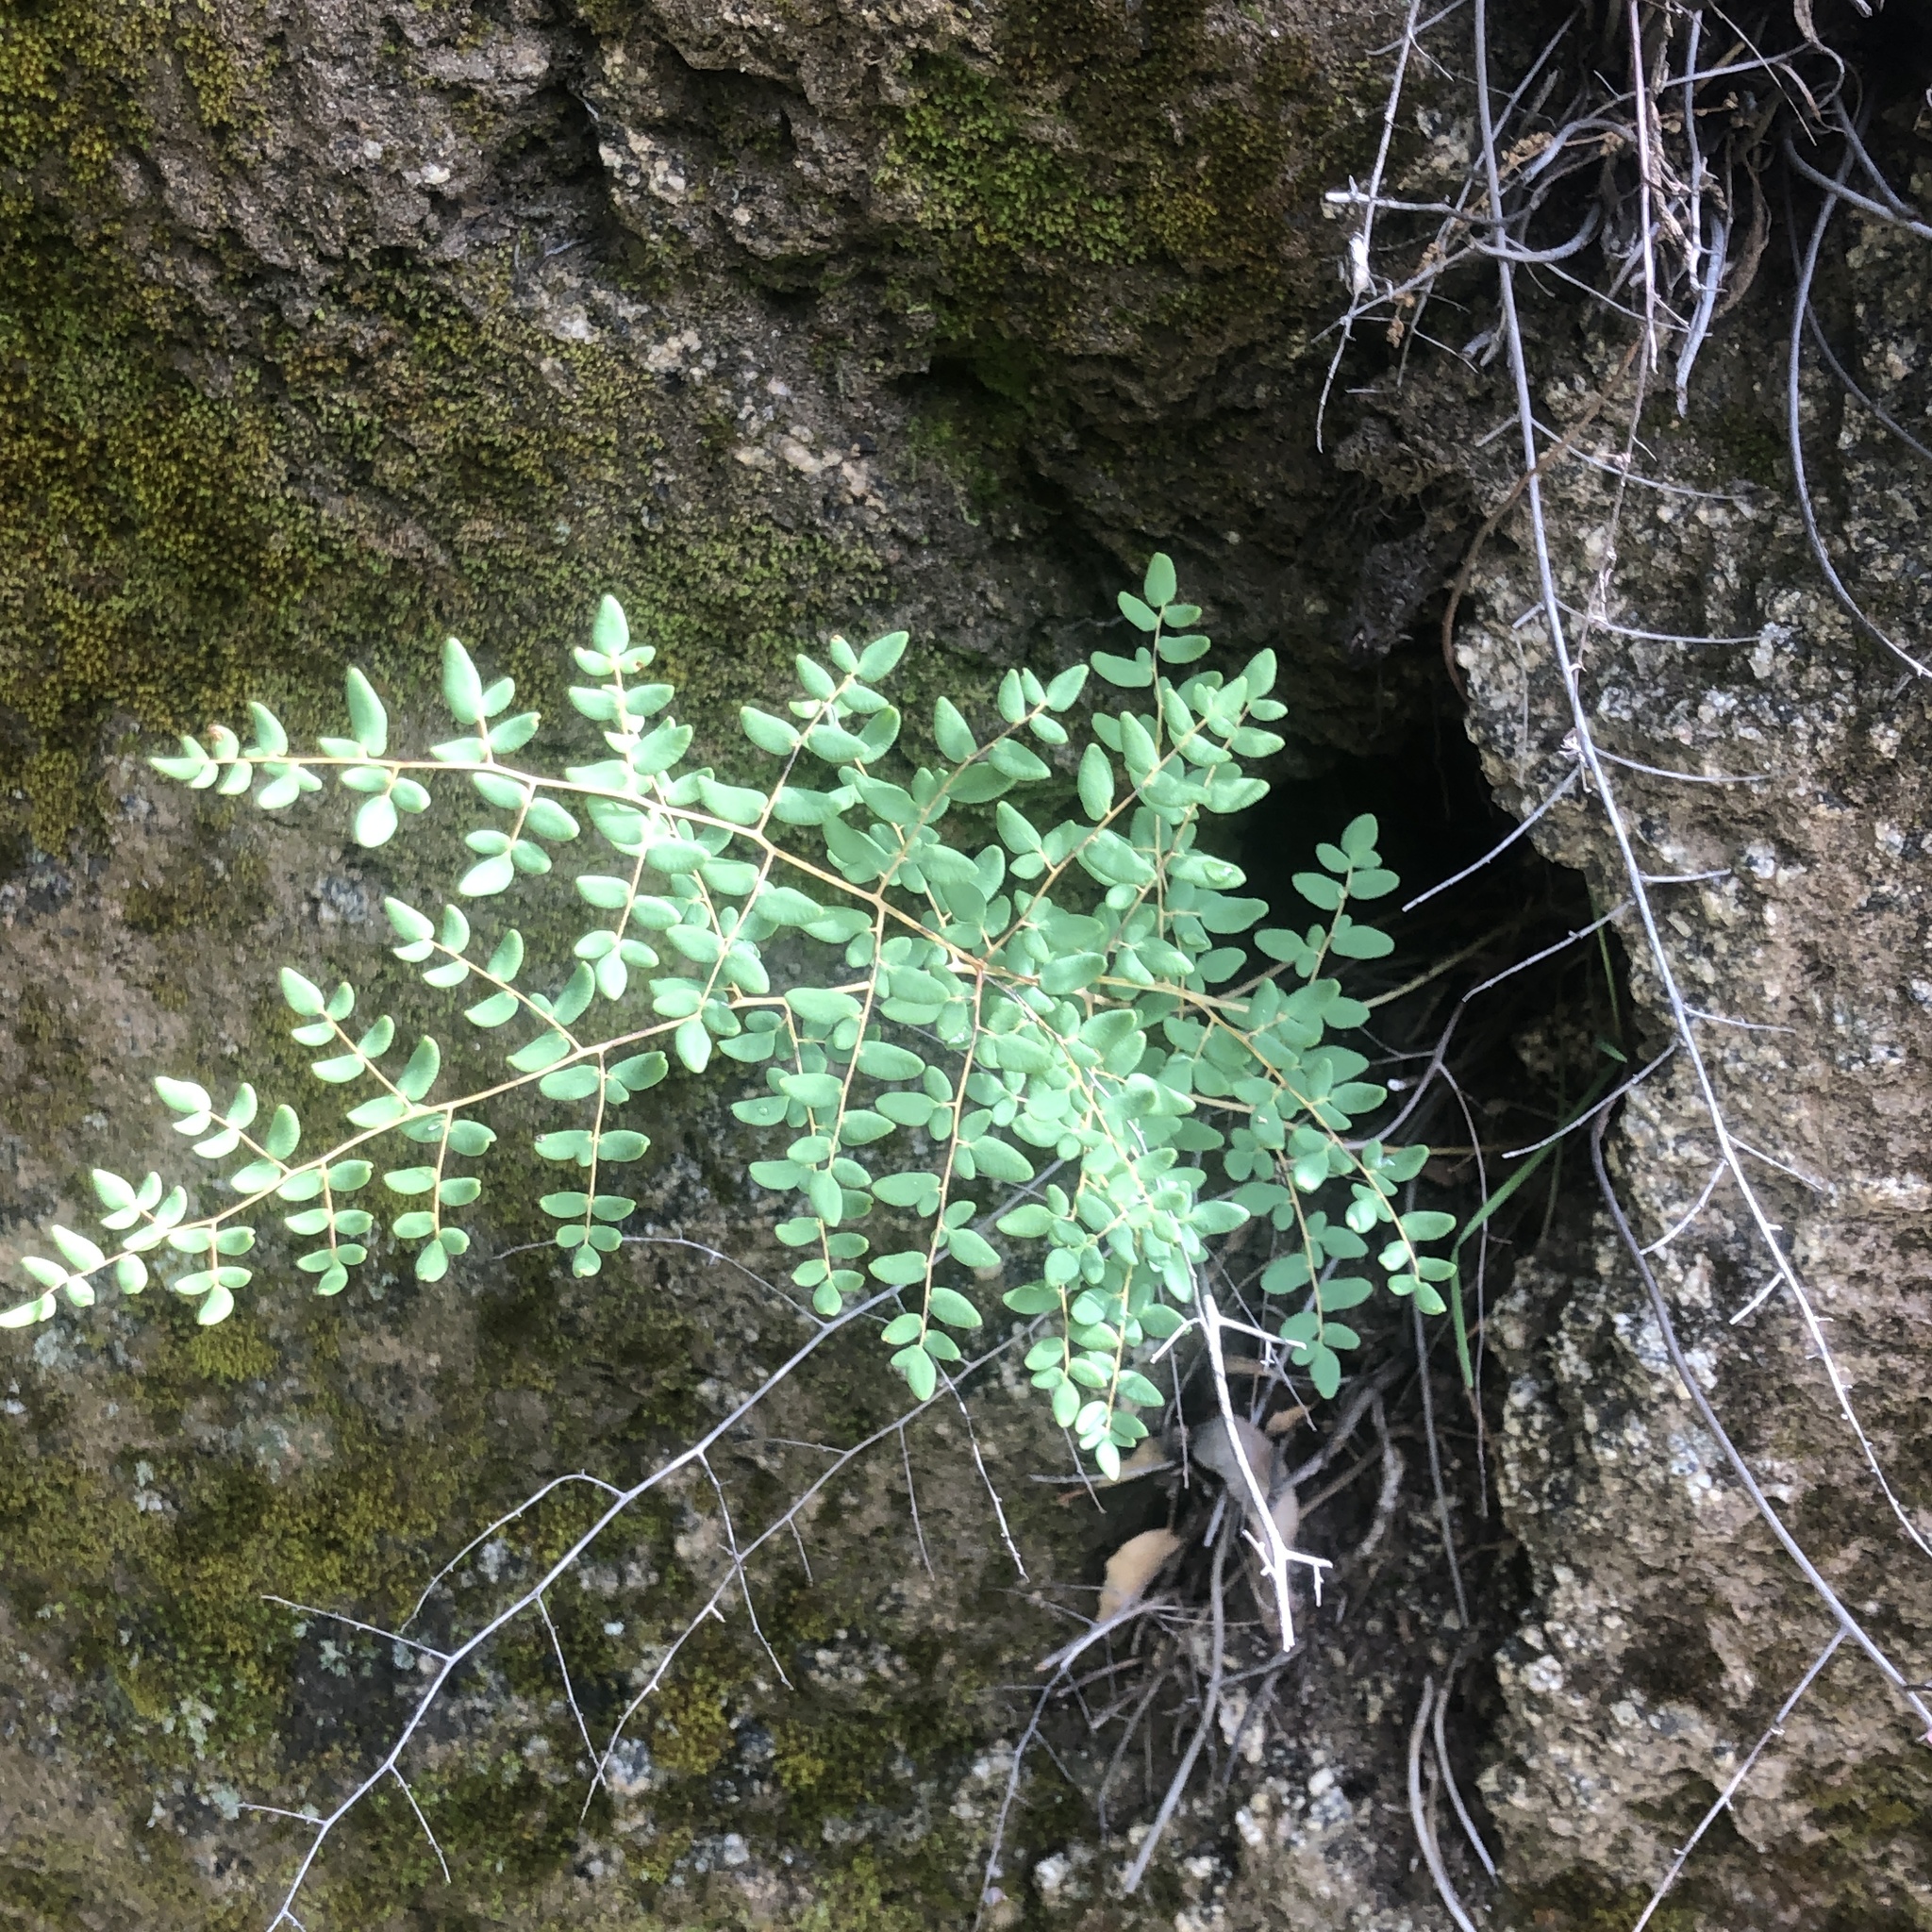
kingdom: Plantae
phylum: Tracheophyta
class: Polypodiopsida
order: Polypodiales
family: Pteridaceae
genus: Pellaea
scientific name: Pellaea andromedifolia
